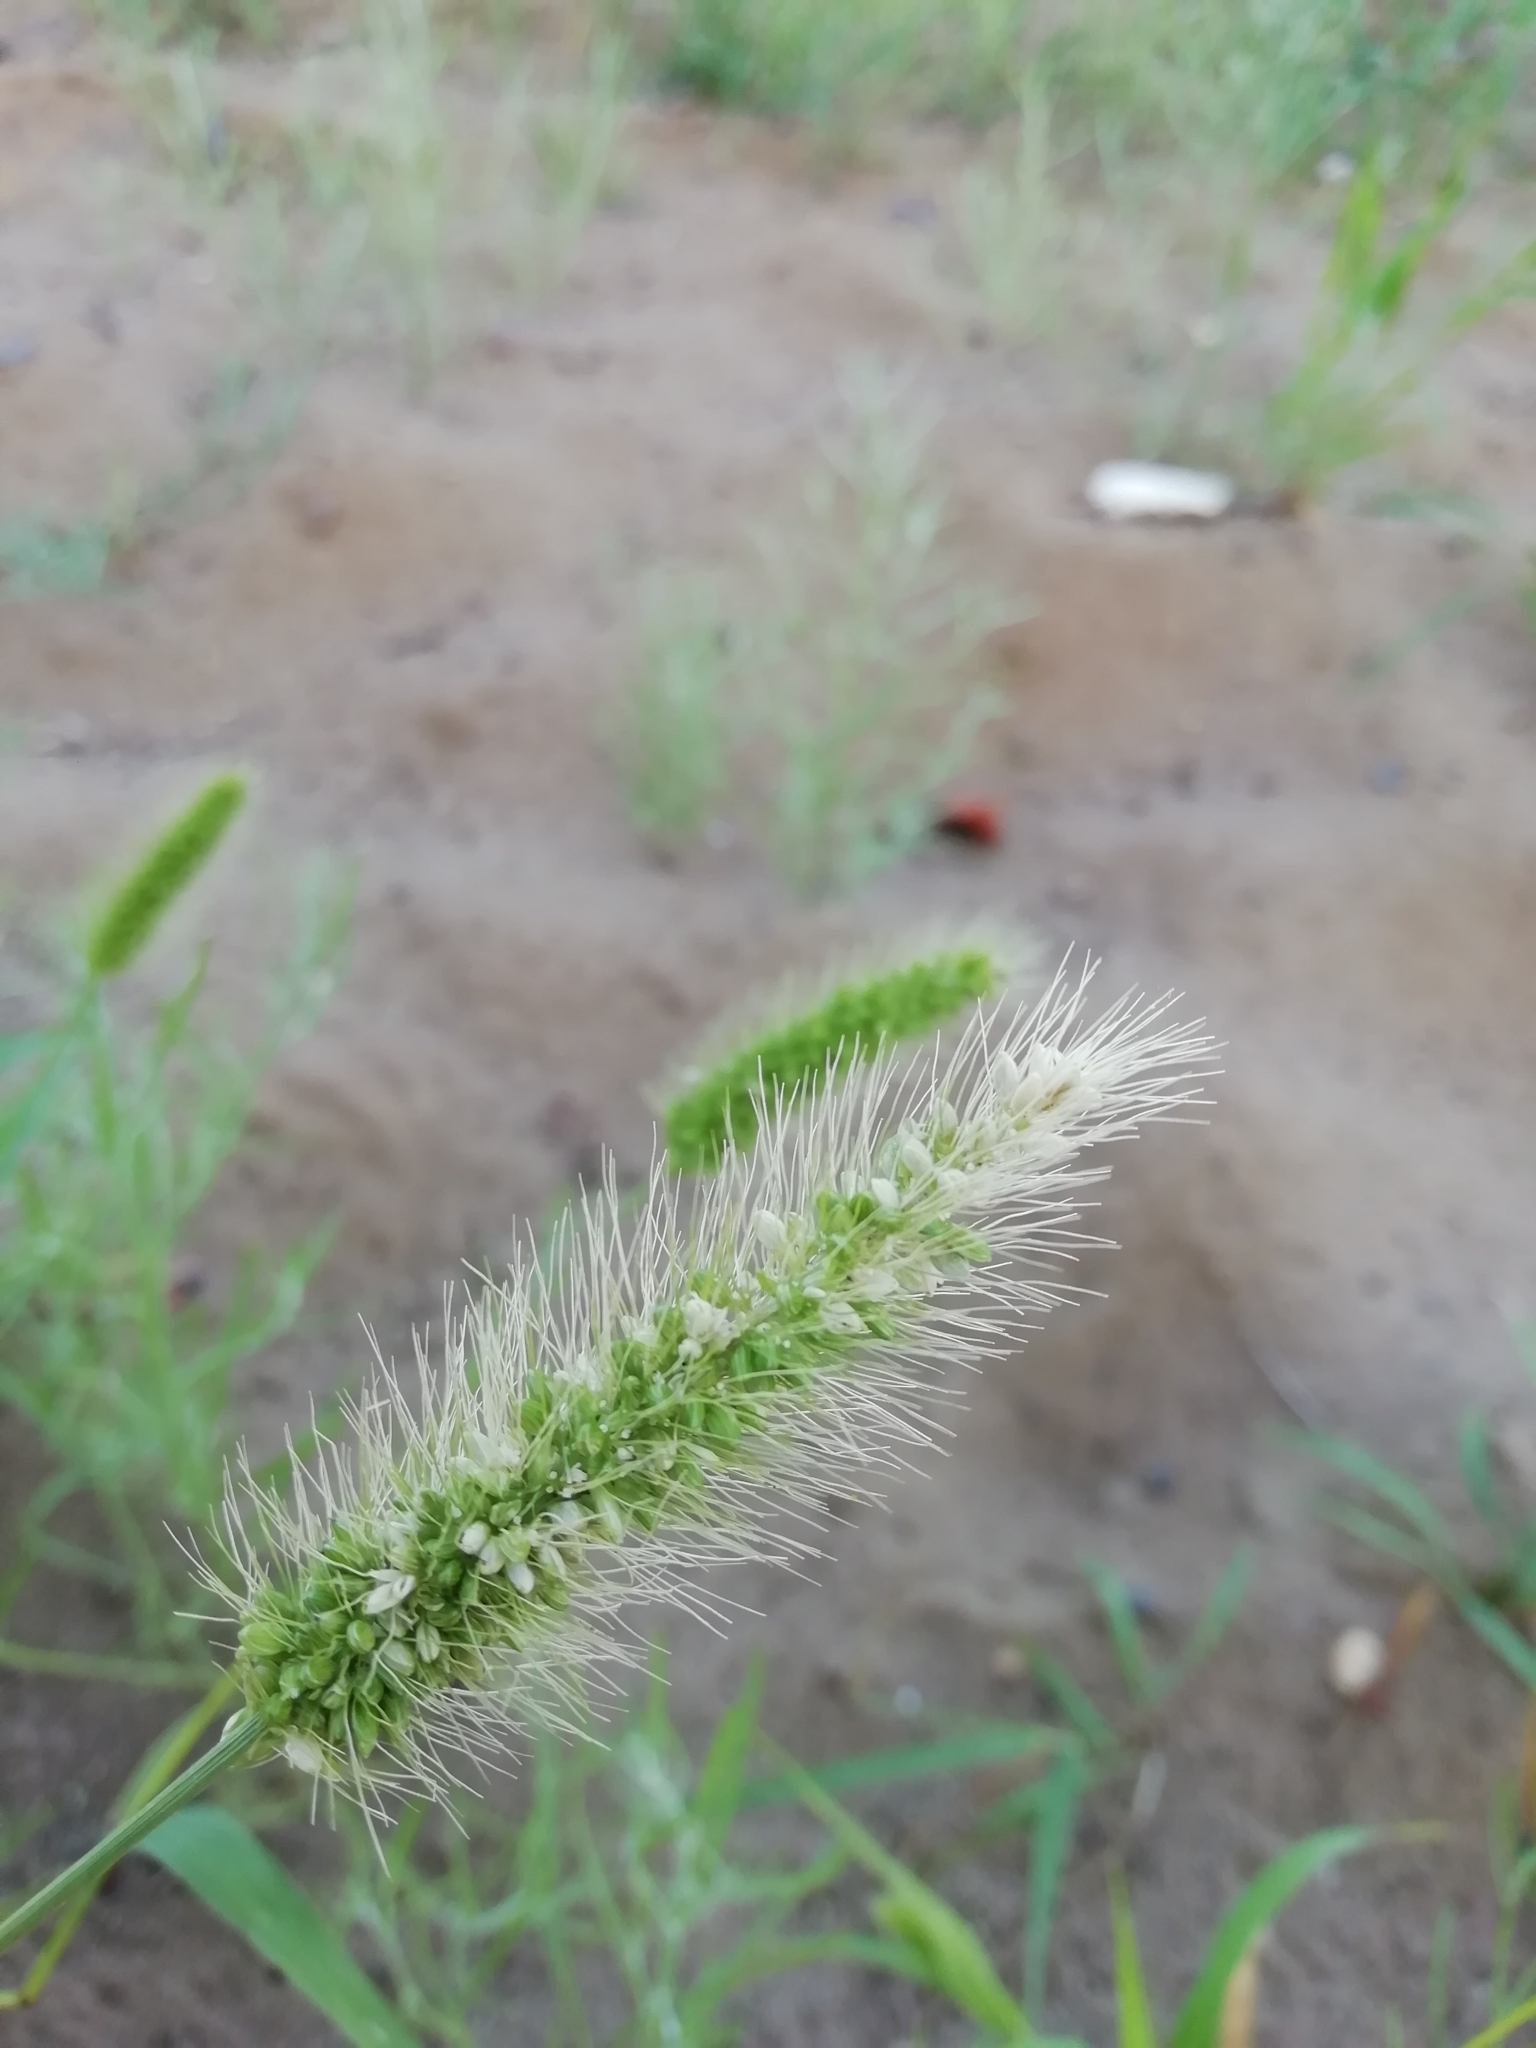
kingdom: Plantae
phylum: Tracheophyta
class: Liliopsida
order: Poales
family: Poaceae
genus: Setaria
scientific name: Setaria viridis
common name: Green bristlegrass
